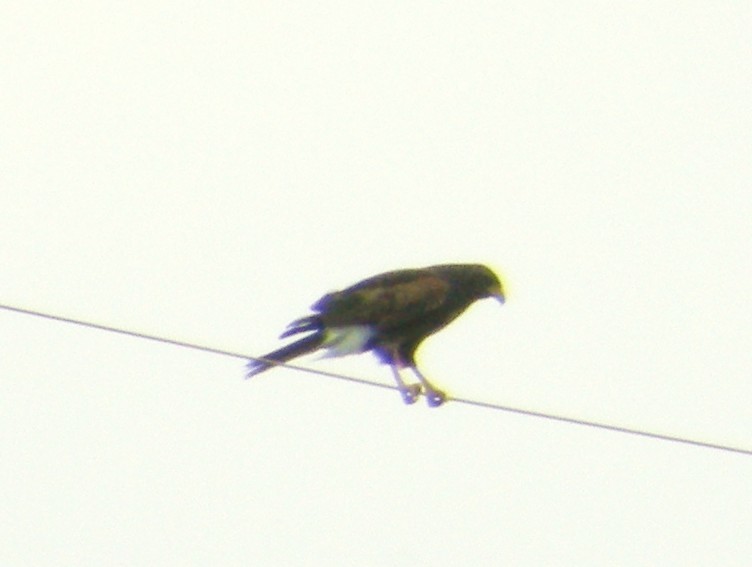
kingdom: Animalia
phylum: Chordata
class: Aves
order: Accipitriformes
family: Accipitridae
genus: Parabuteo
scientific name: Parabuteo unicinctus
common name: Harris's hawk
